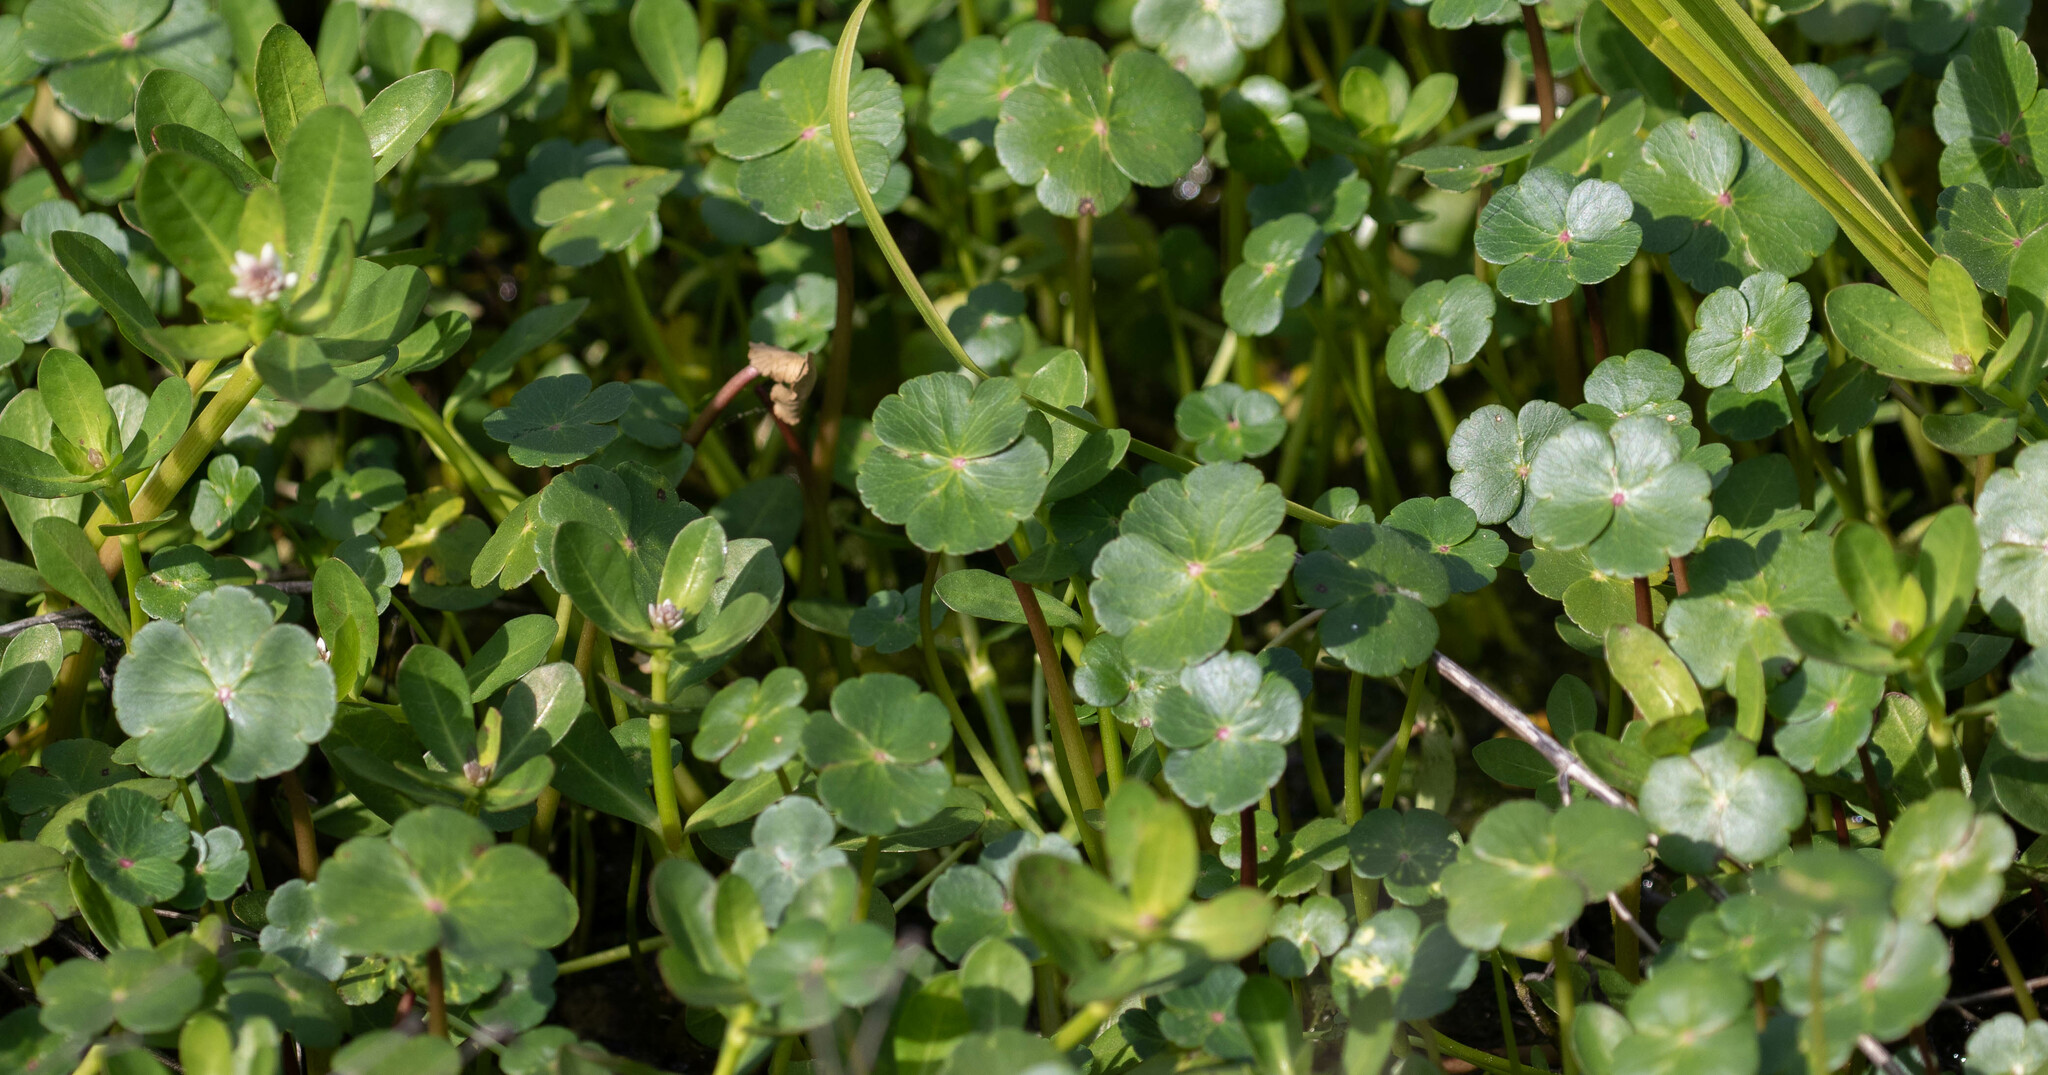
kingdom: Plantae
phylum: Tracheophyta
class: Magnoliopsida
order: Apiales
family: Araliaceae
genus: Hydrocotyle
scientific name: Hydrocotyle ranunculoides
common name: Floating pennywort
